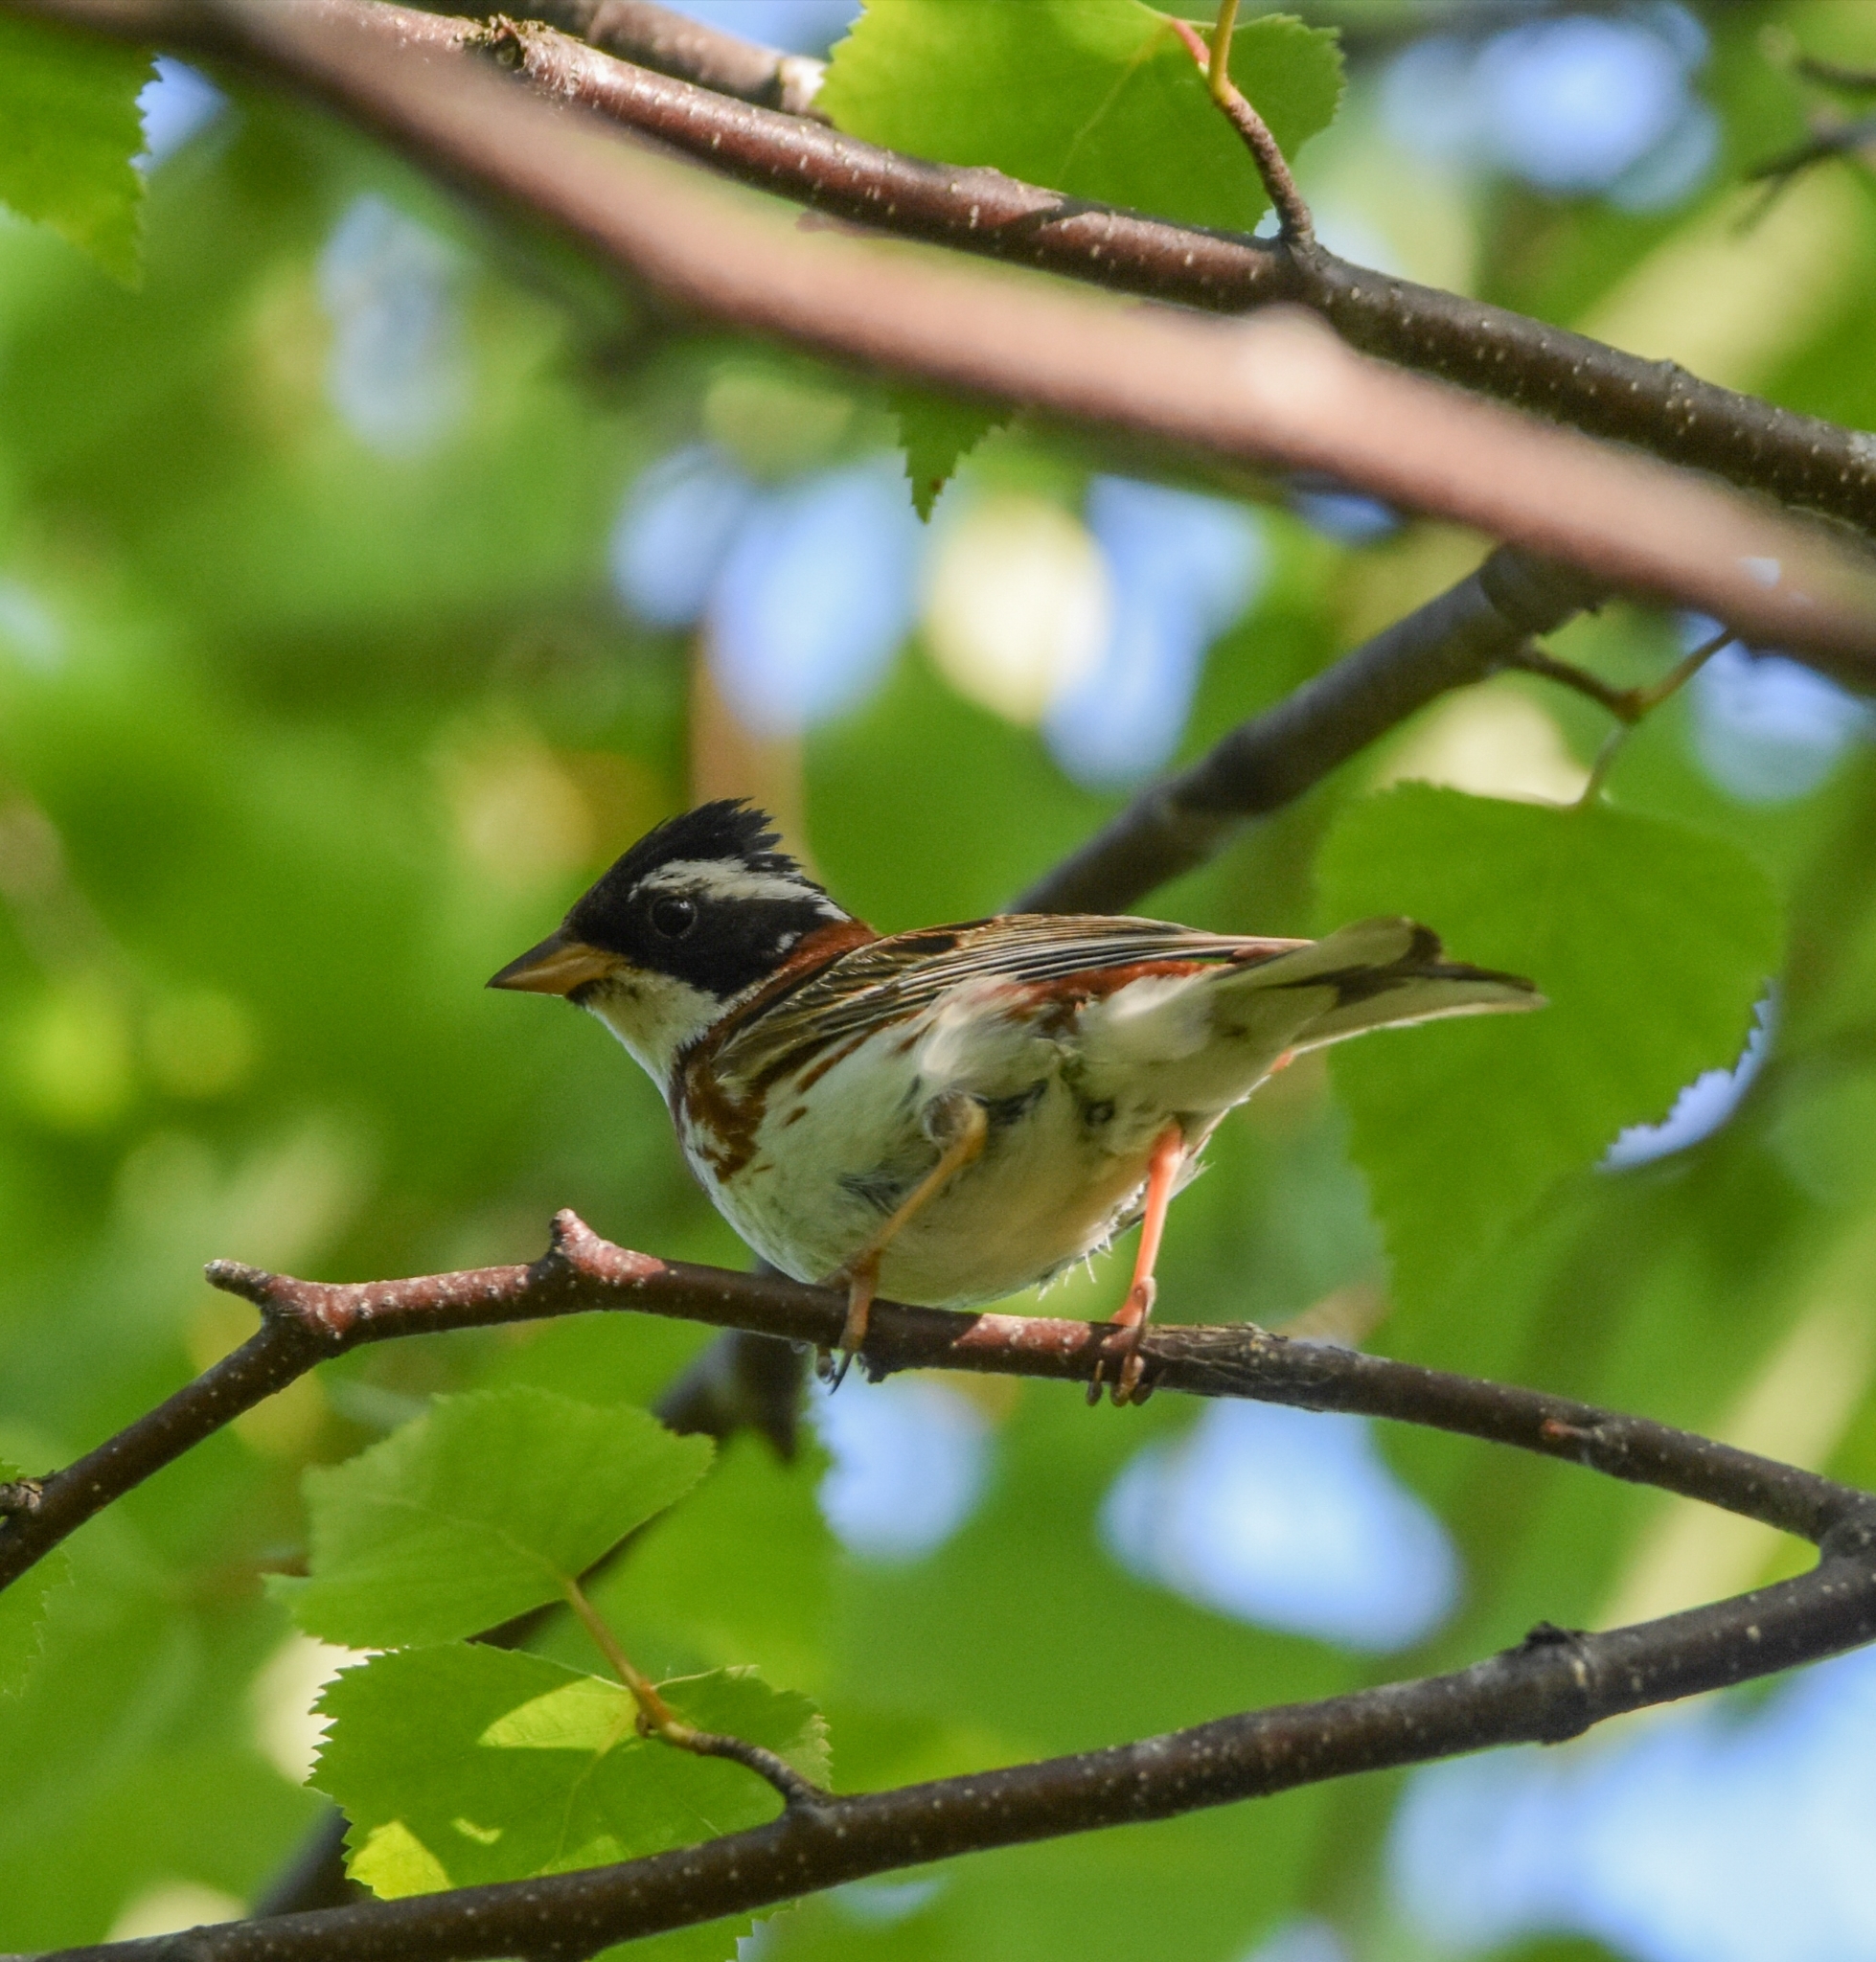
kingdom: Animalia
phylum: Chordata
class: Aves
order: Passeriformes
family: Emberizidae
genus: Emberiza
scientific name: Emberiza rustica
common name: Rustic bunting
